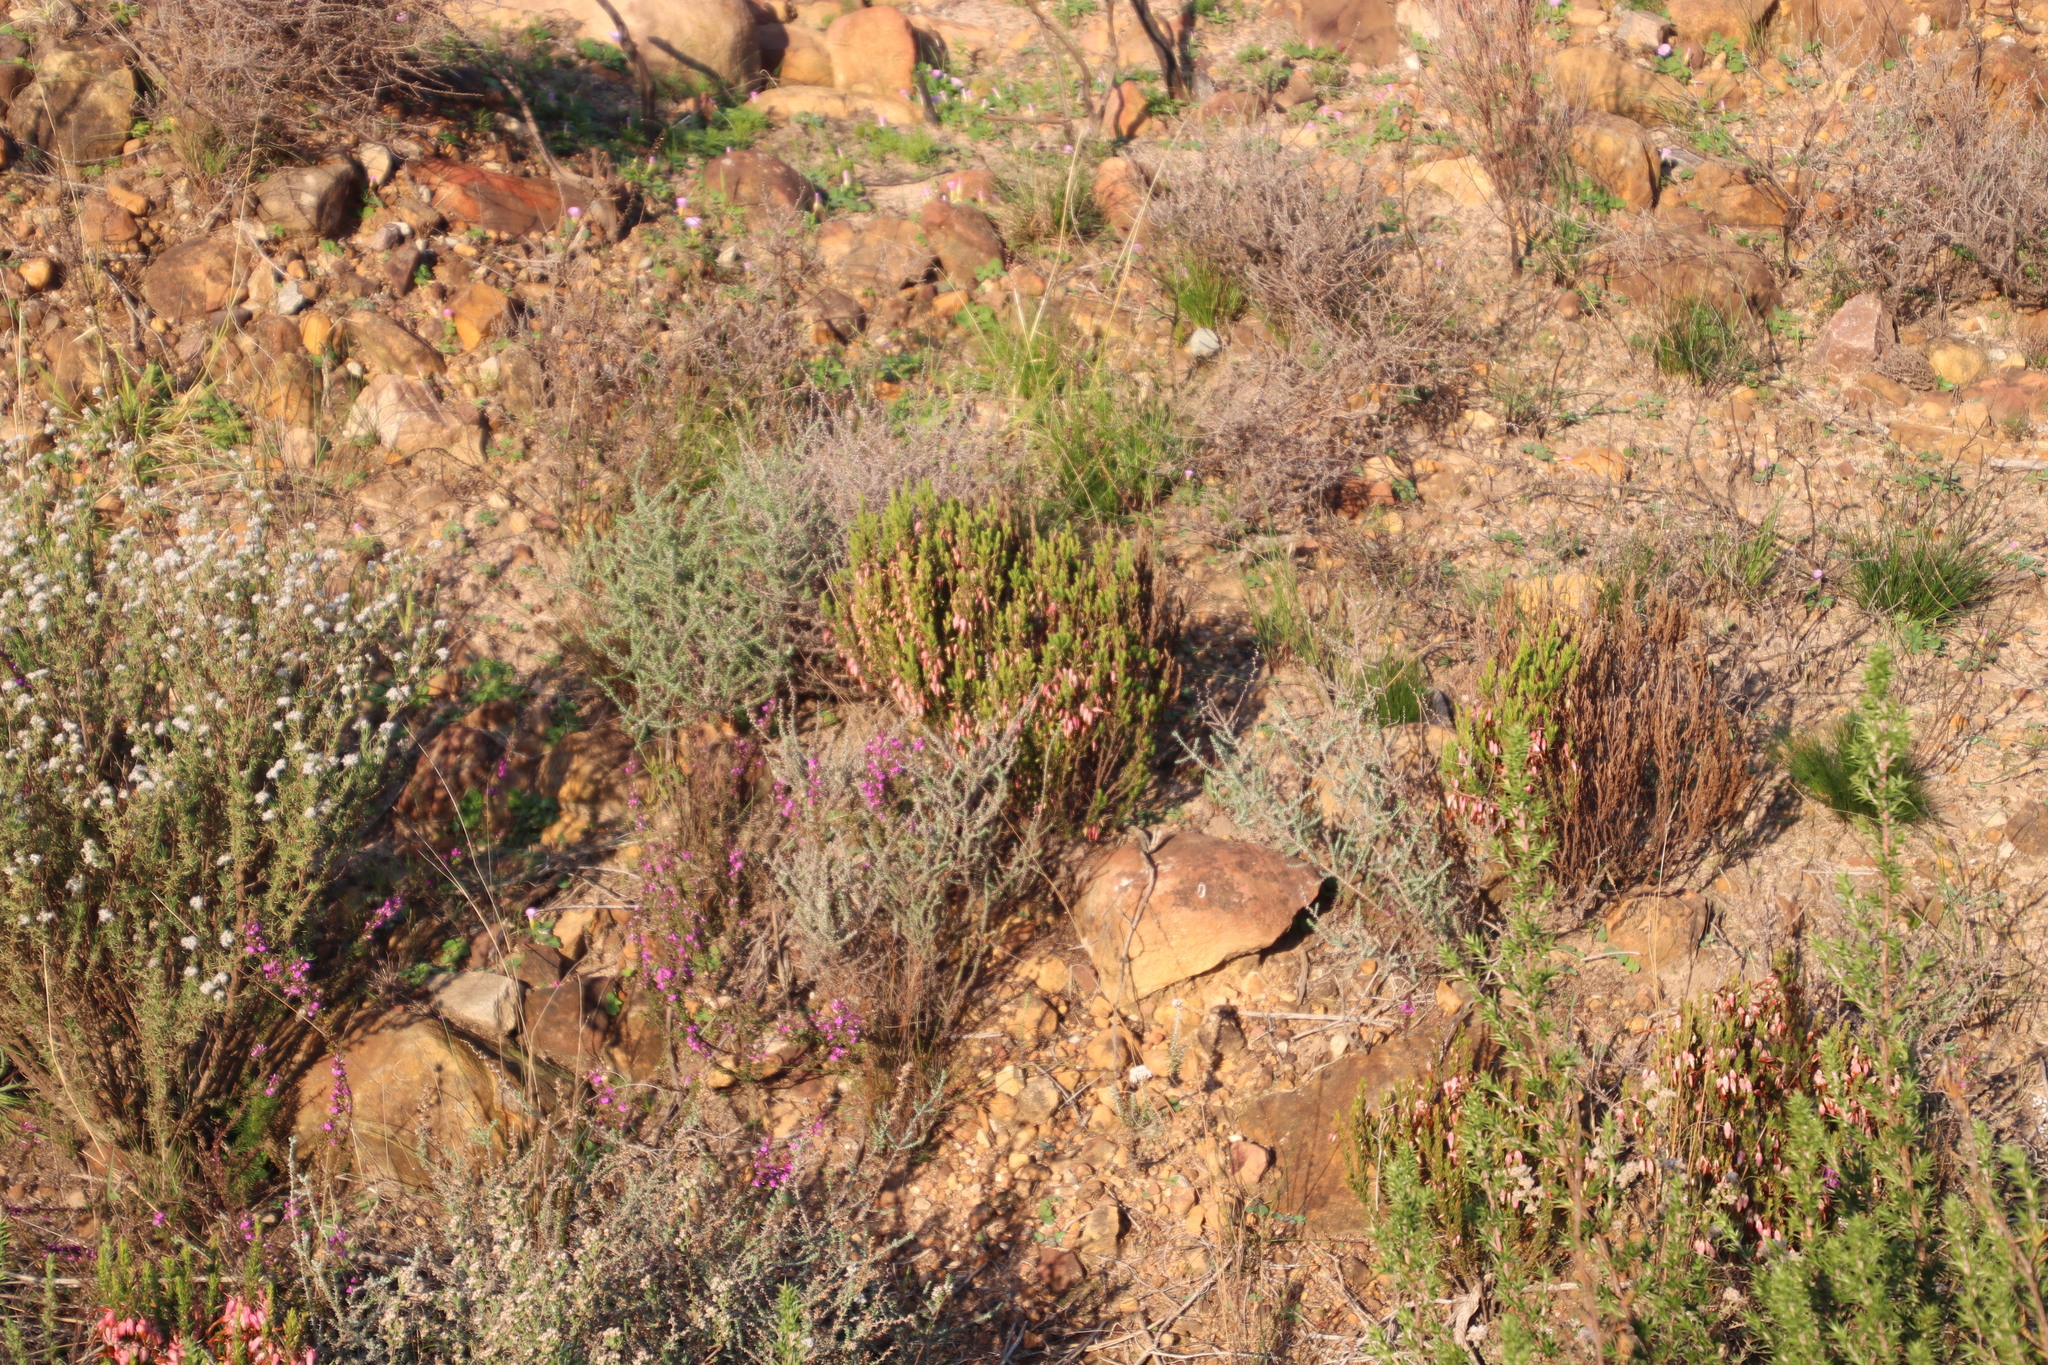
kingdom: Plantae
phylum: Tracheophyta
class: Magnoliopsida
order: Ericales
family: Ericaceae
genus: Erica
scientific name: Erica plukenetii
